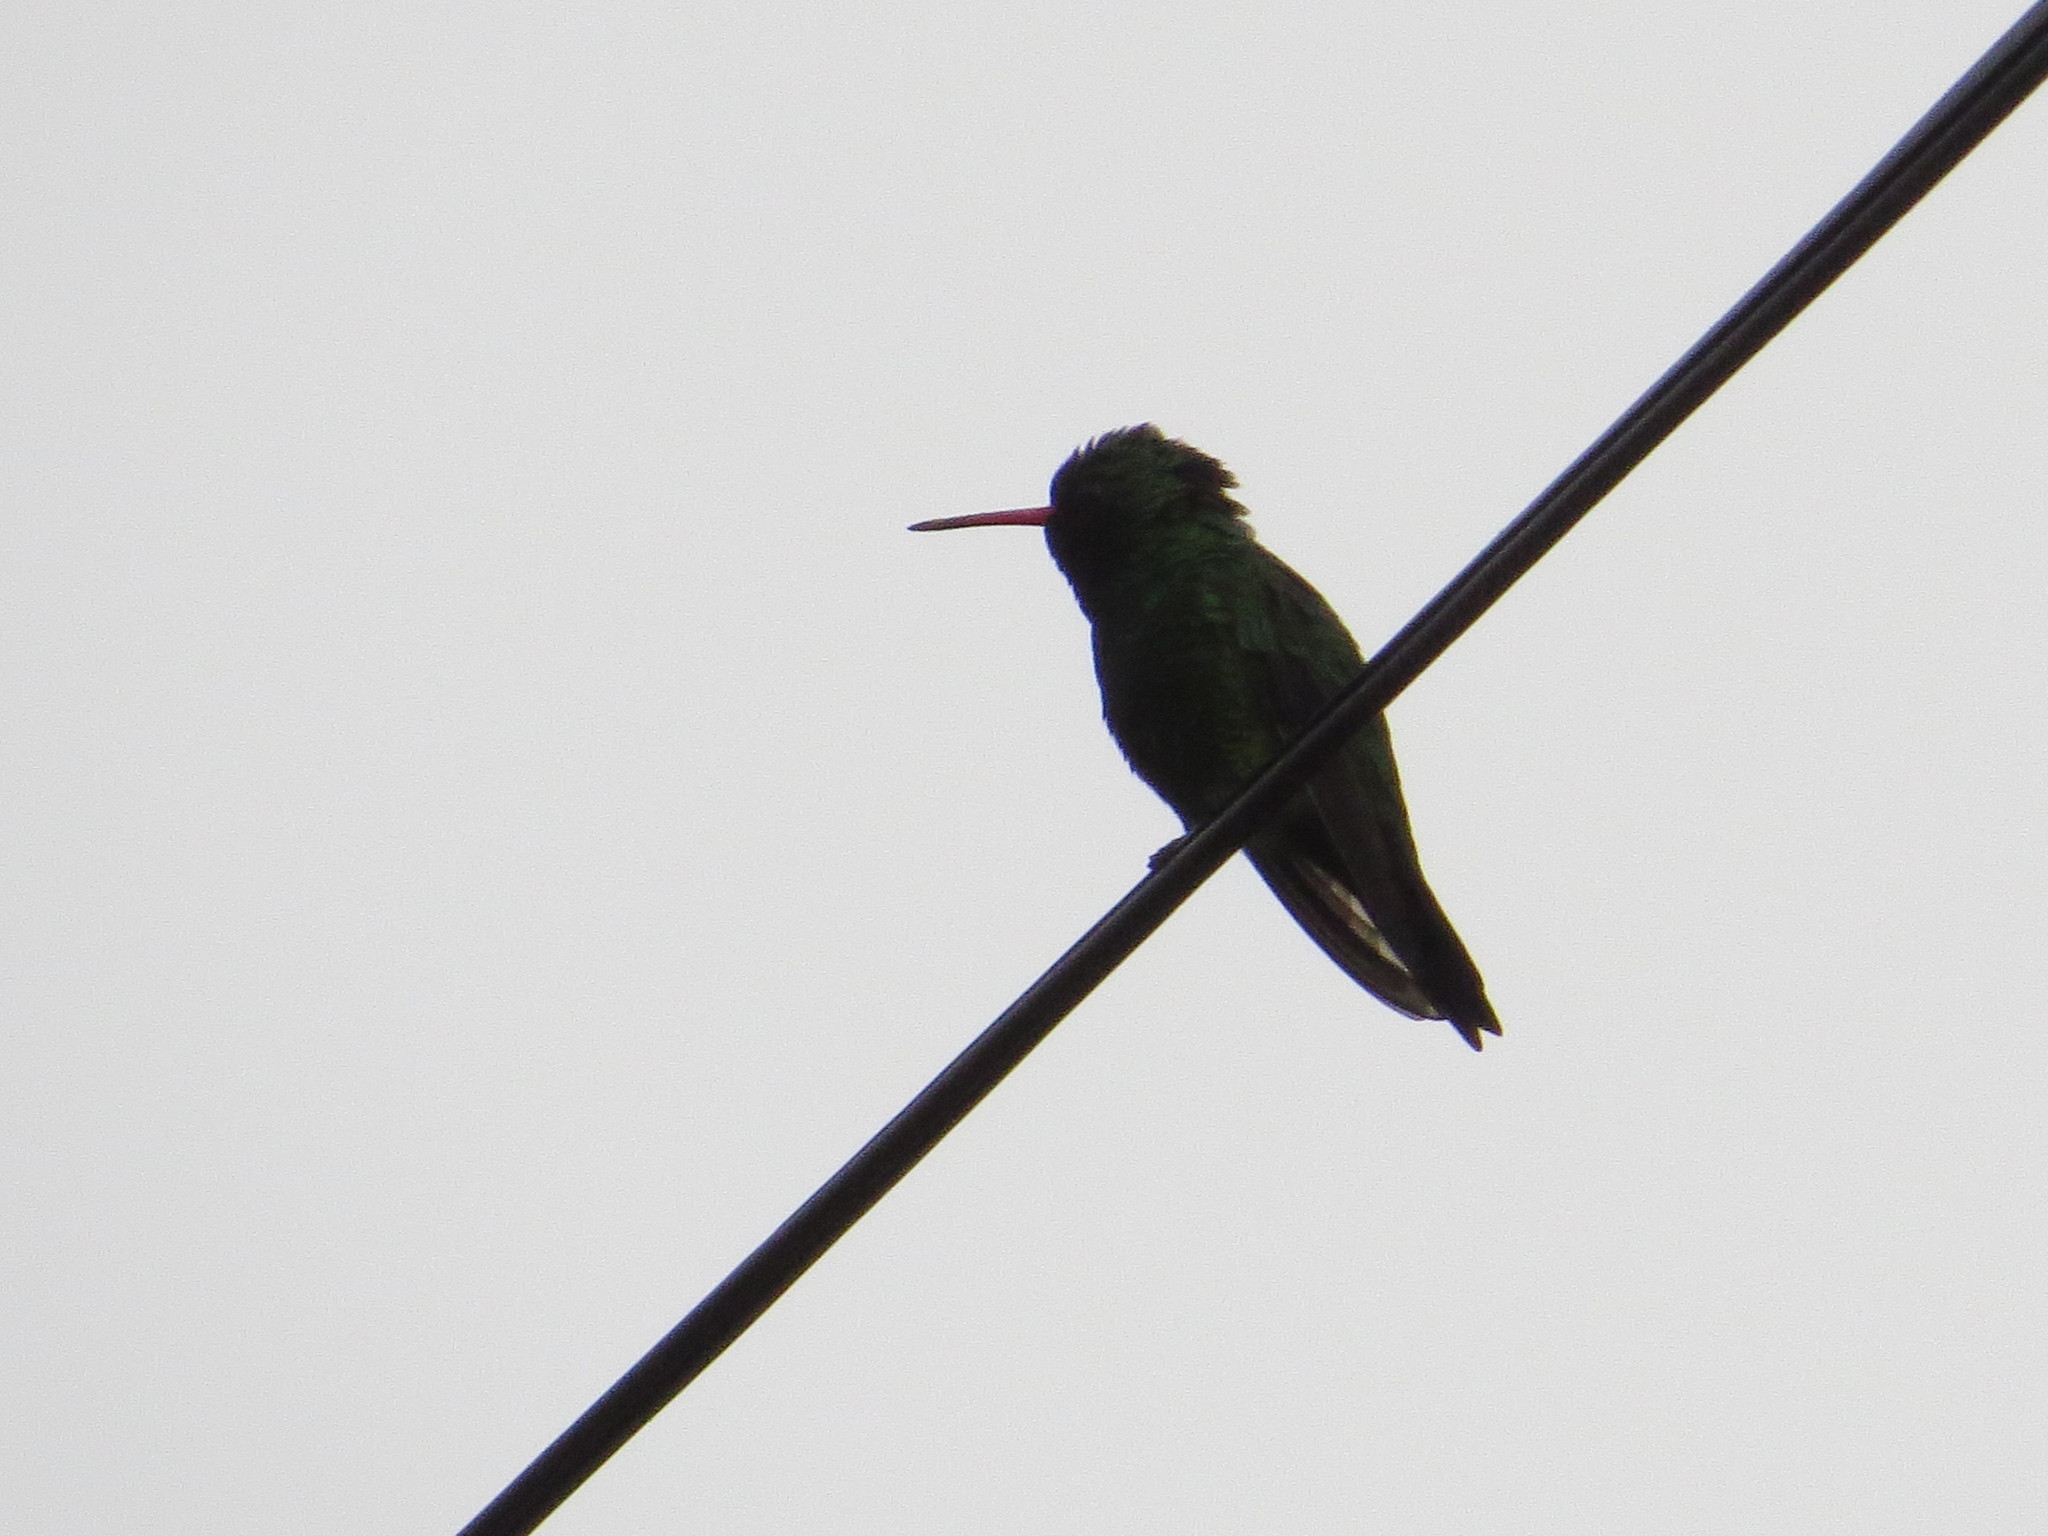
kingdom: Animalia
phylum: Chordata
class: Aves
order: Apodiformes
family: Trochilidae
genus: Chlorostilbon
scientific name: Chlorostilbon lucidus
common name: Glittering-bellied emerald
